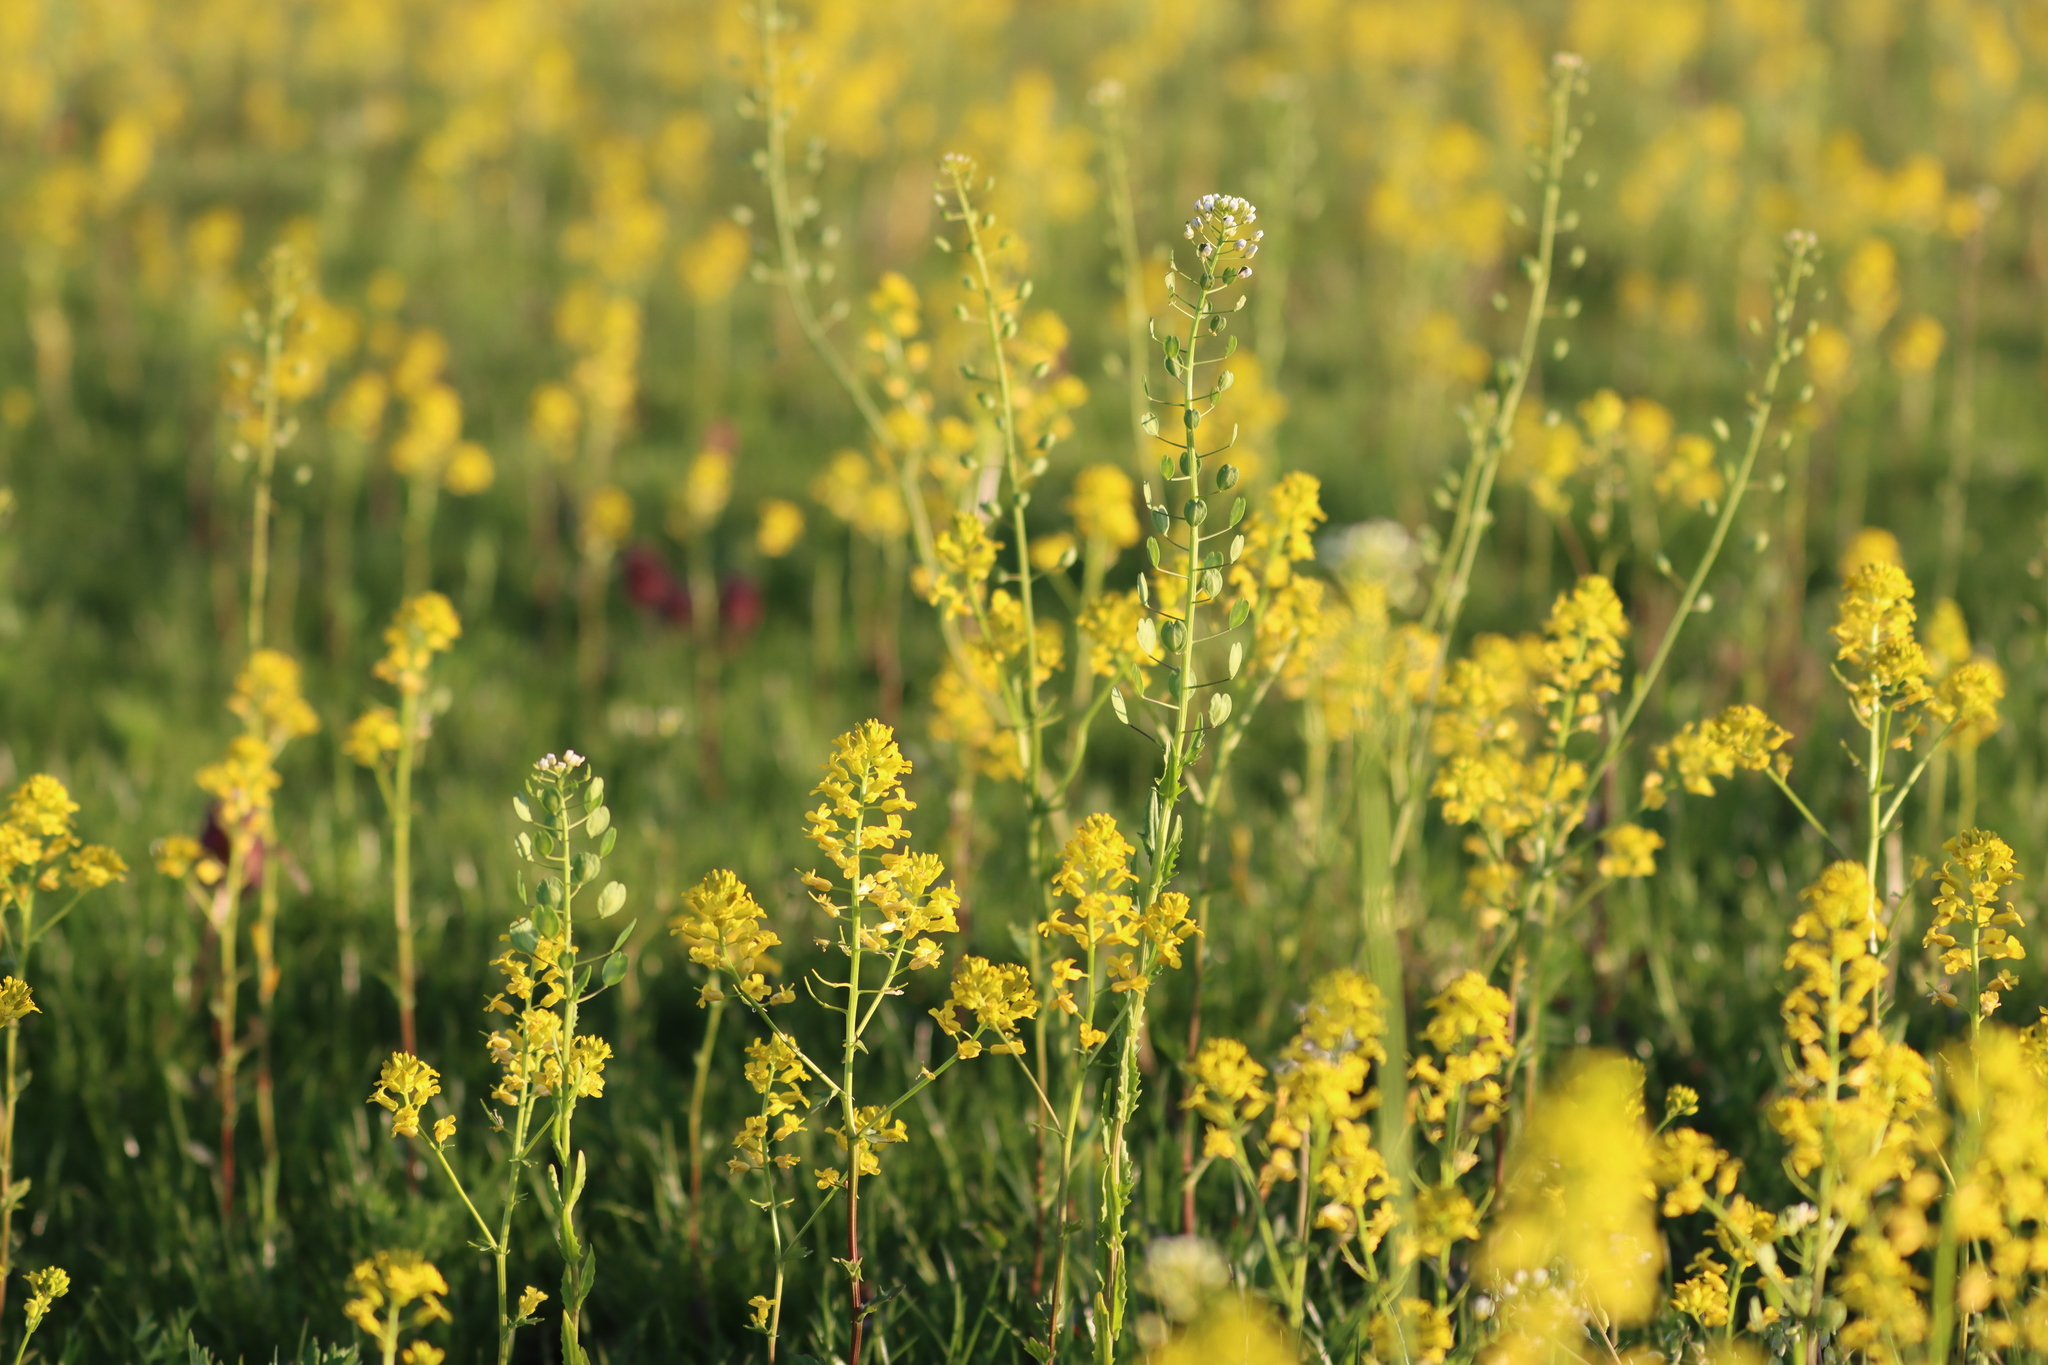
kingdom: Plantae
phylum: Tracheophyta
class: Magnoliopsida
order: Brassicales
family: Brassicaceae
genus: Thlaspi
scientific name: Thlaspi arvense
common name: Field pennycress
